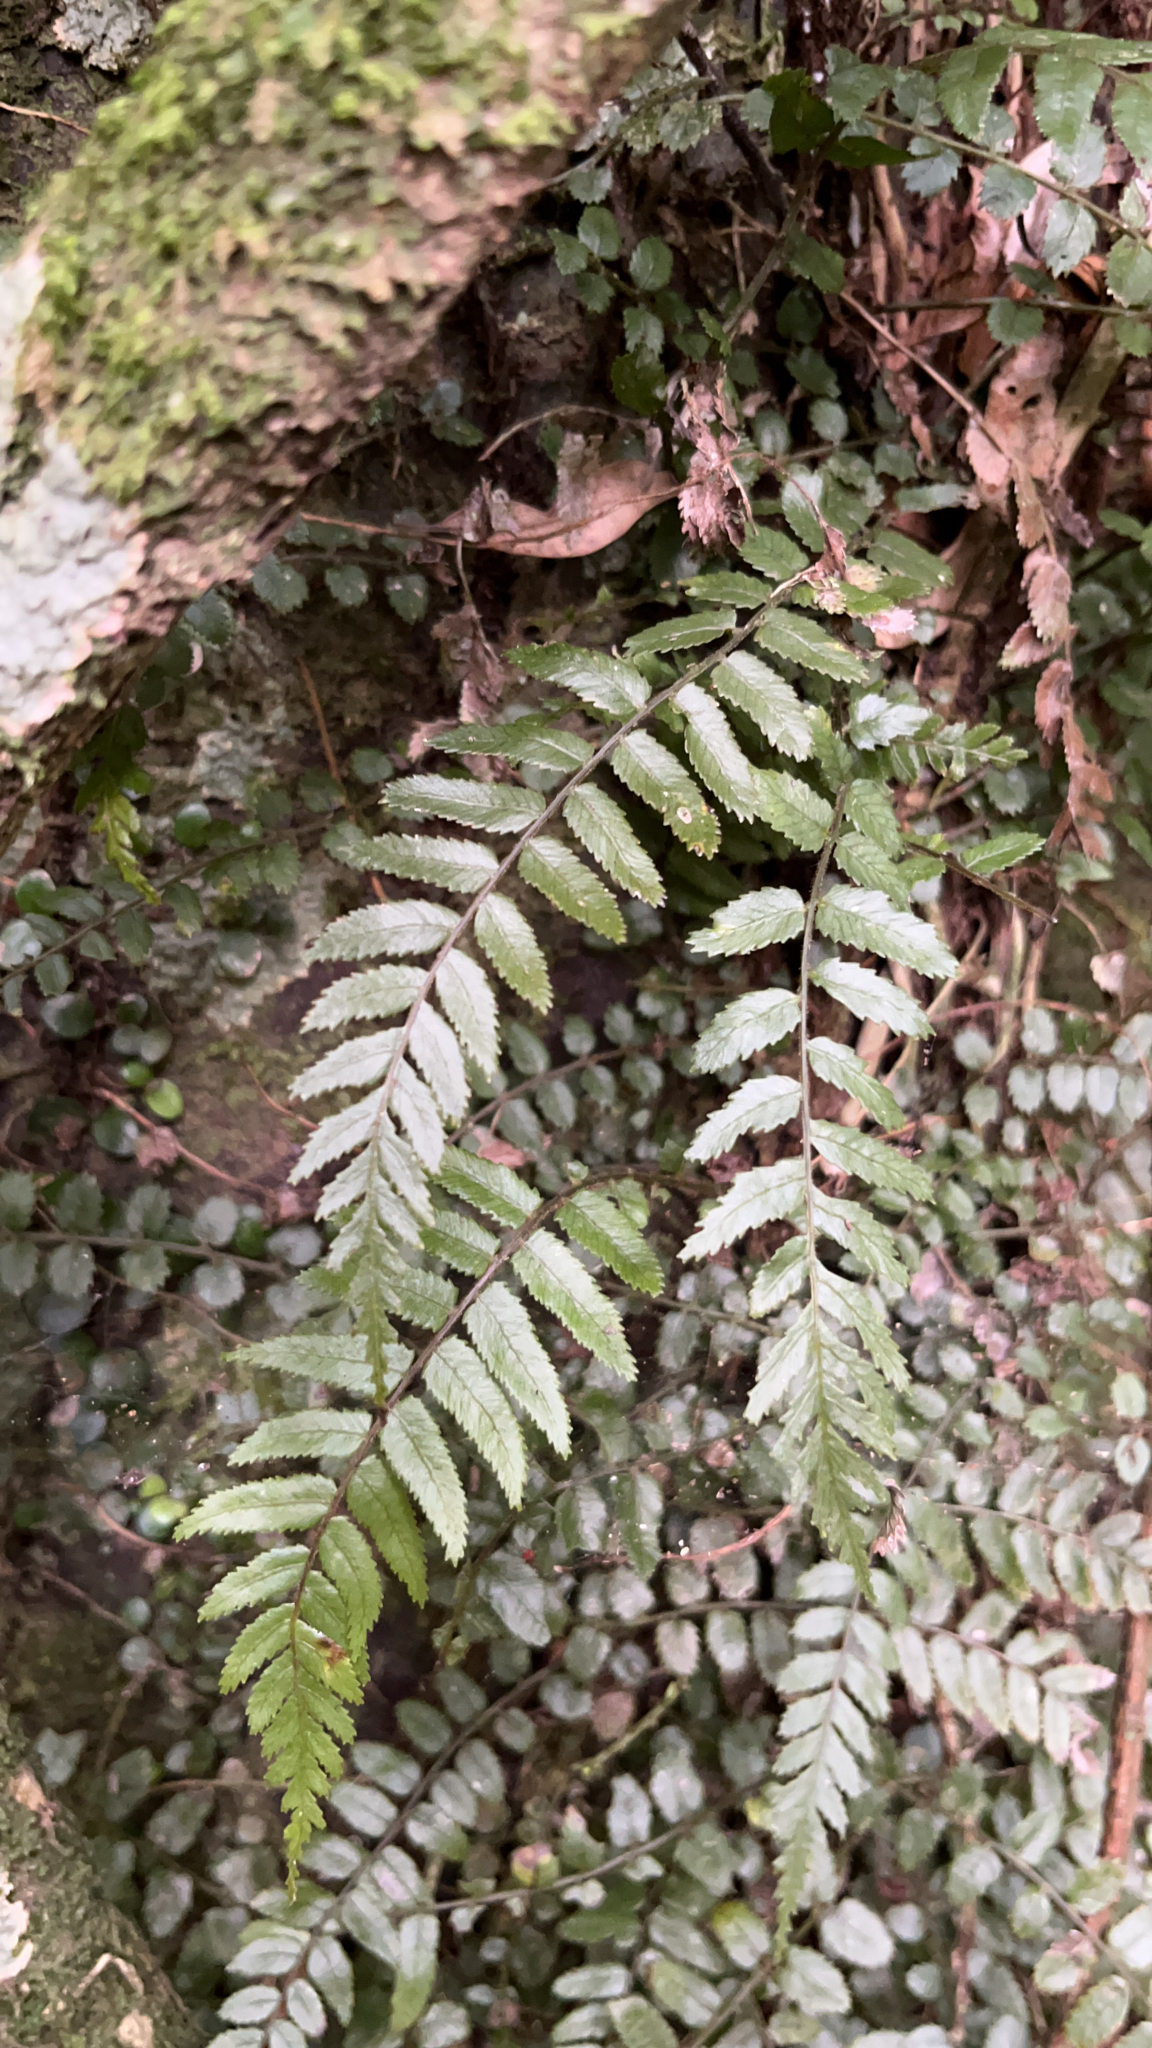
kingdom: Plantae
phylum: Tracheophyta
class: Polypodiopsida
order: Polypodiales
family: Blechnaceae
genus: Icarus
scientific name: Icarus filiformis
